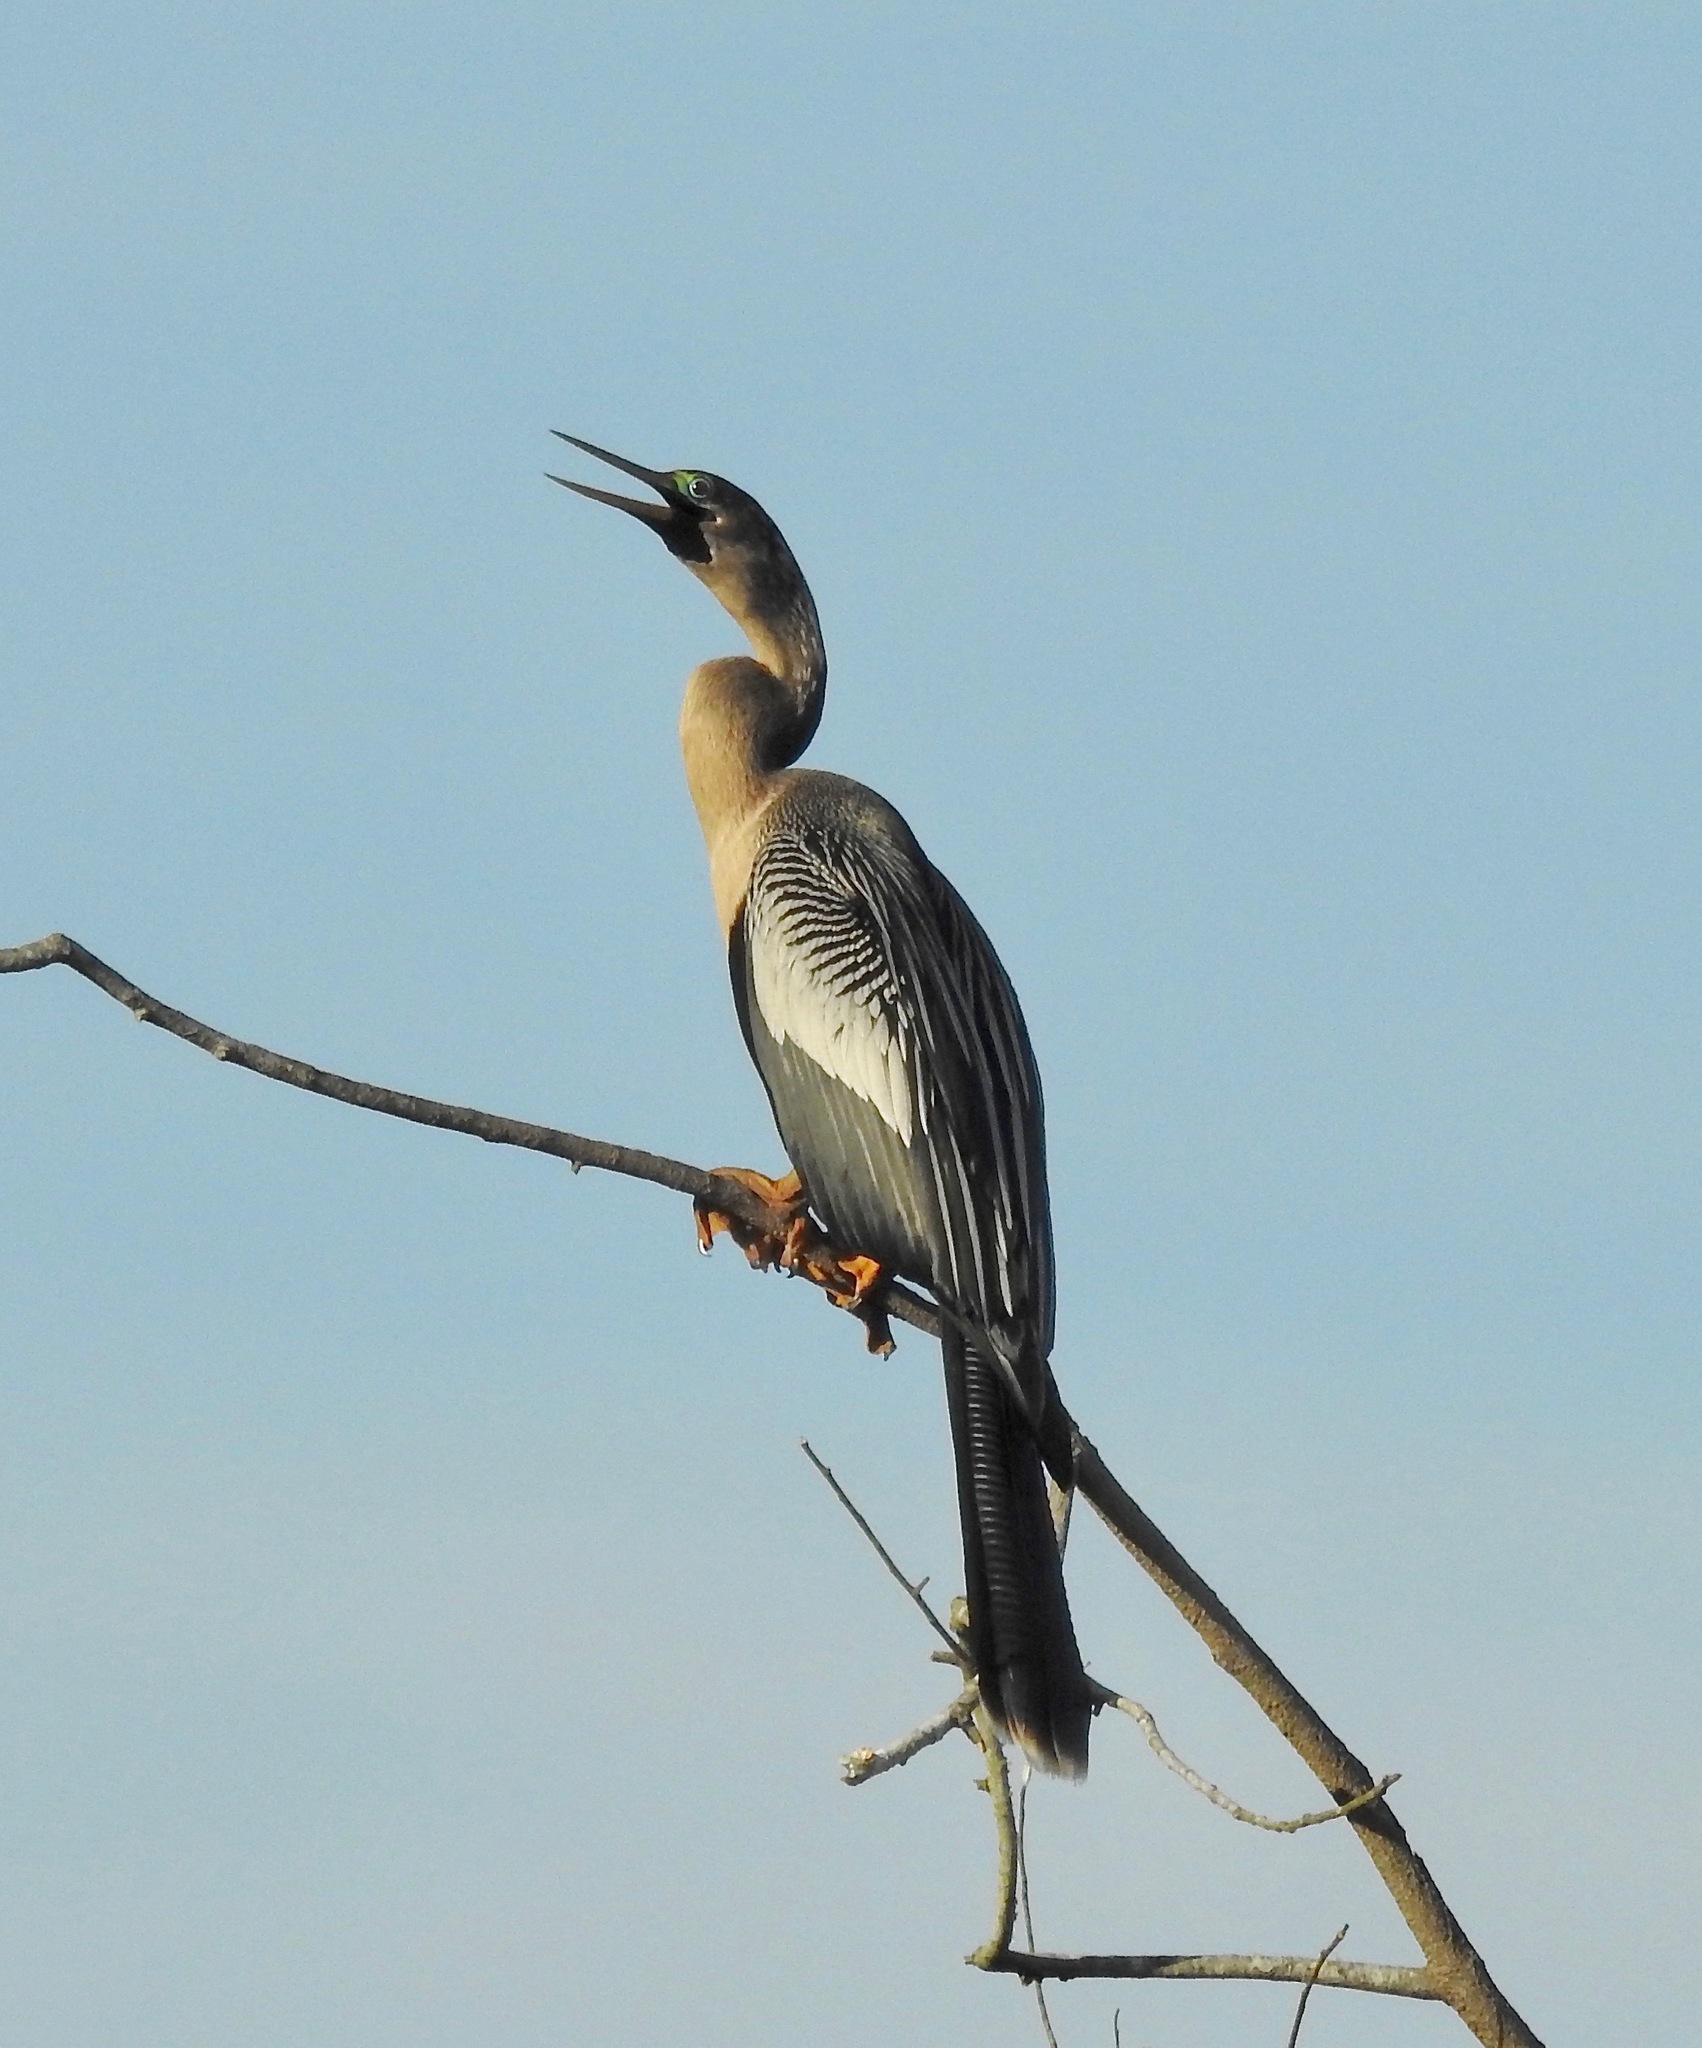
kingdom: Animalia
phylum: Chordata
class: Aves
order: Suliformes
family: Anhingidae
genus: Anhinga
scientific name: Anhinga anhinga
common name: Anhinga
